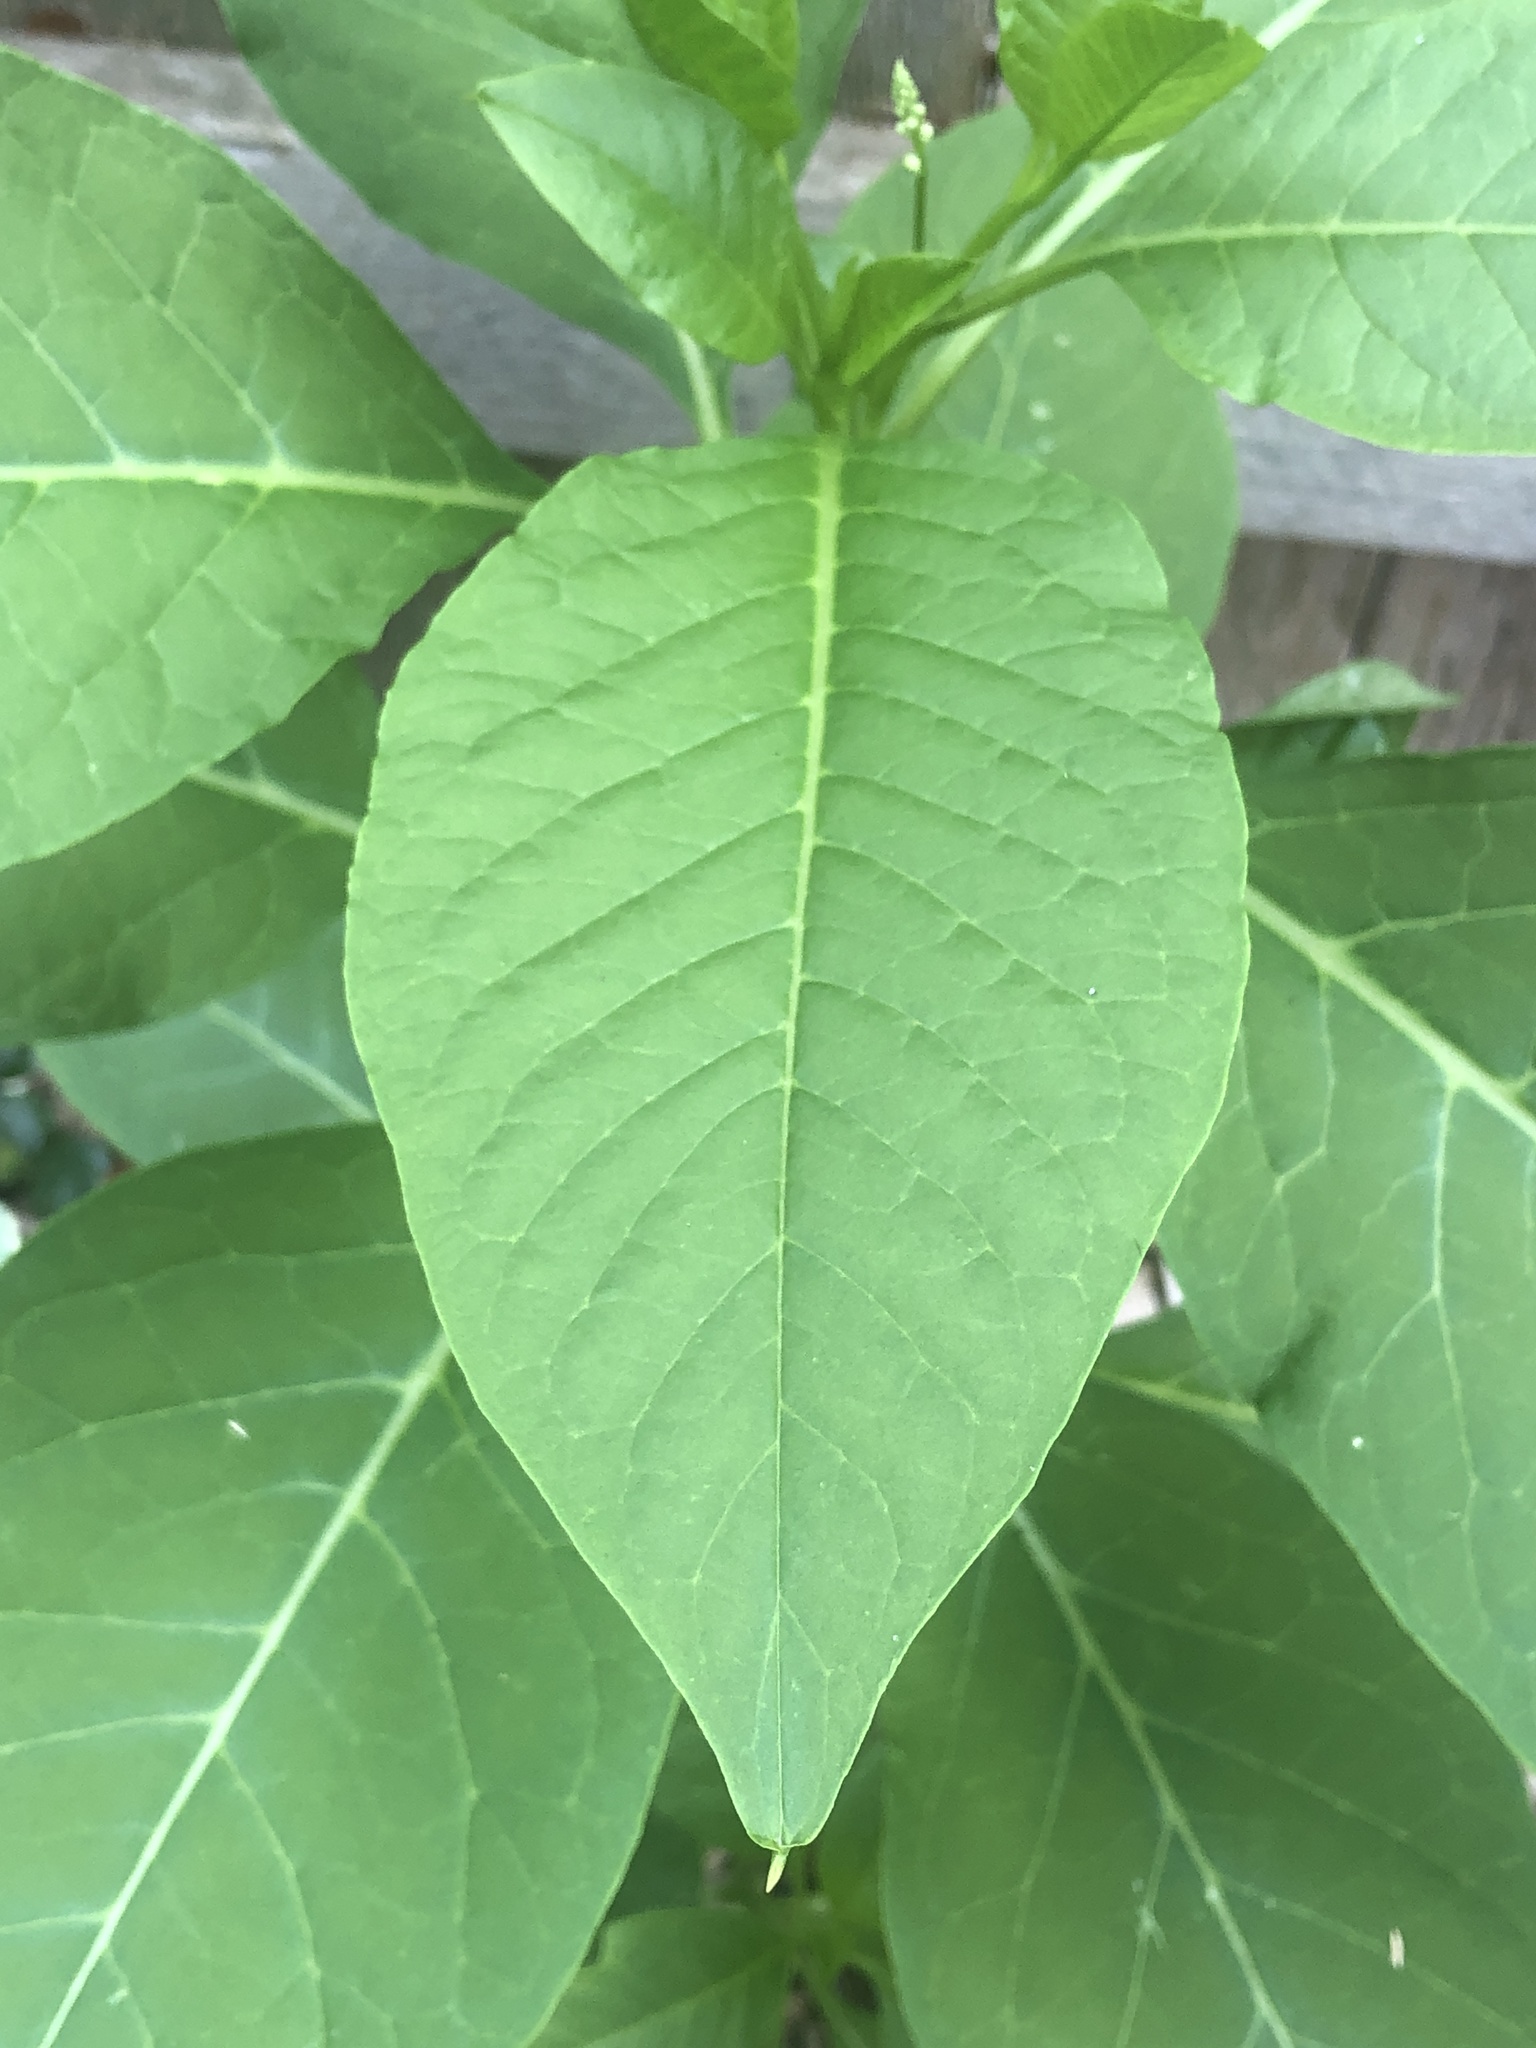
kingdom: Plantae
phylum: Tracheophyta
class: Magnoliopsida
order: Caryophyllales
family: Phytolaccaceae
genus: Phytolacca
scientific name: Phytolacca americana
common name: American pokeweed
